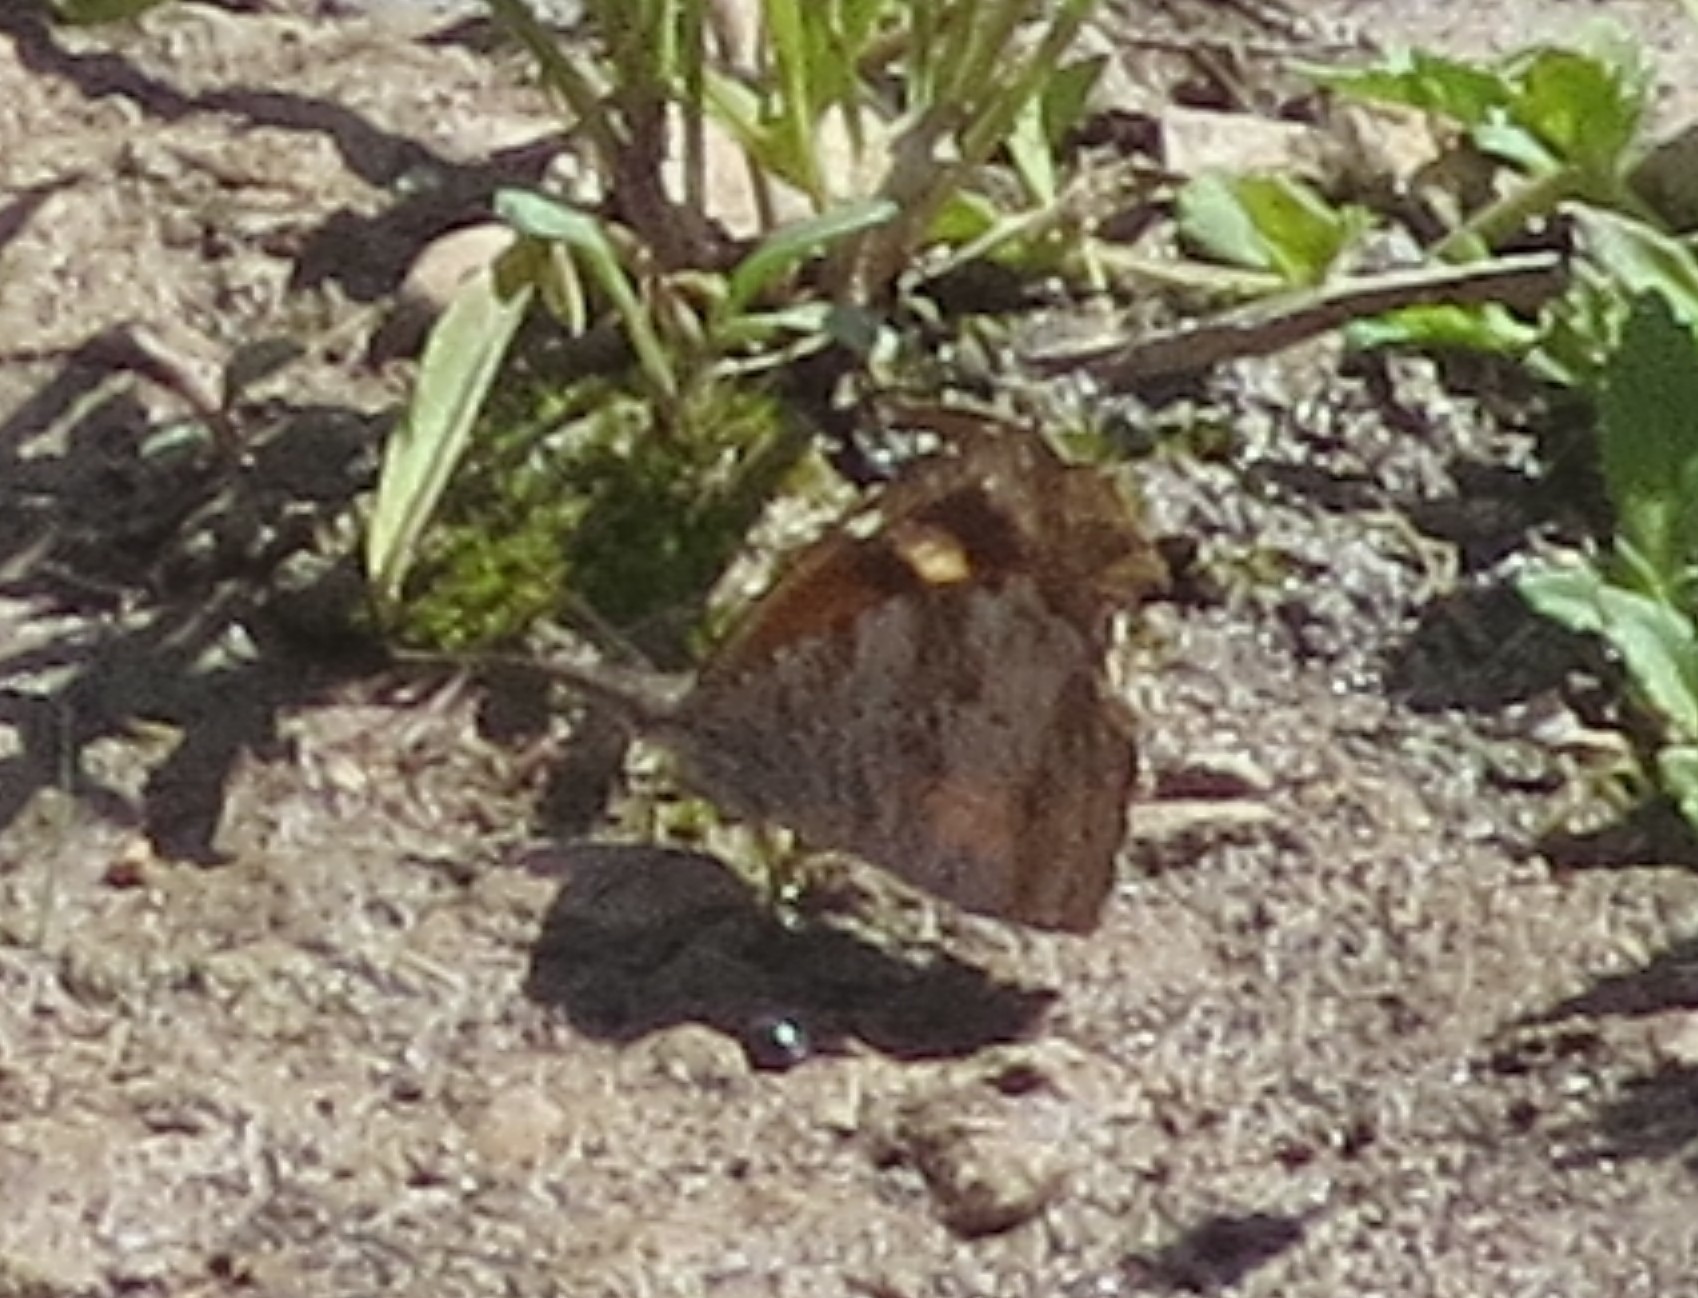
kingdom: Animalia
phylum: Arthropoda
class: Insecta
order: Lepidoptera
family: Nymphalidae
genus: Libytheana
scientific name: Libytheana carinenta
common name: American snout
